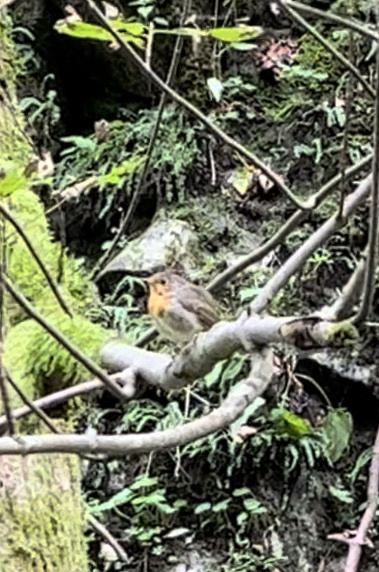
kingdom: Animalia
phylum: Chordata
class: Aves
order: Passeriformes
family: Muscicapidae
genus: Erithacus
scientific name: Erithacus rubecula
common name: European robin
